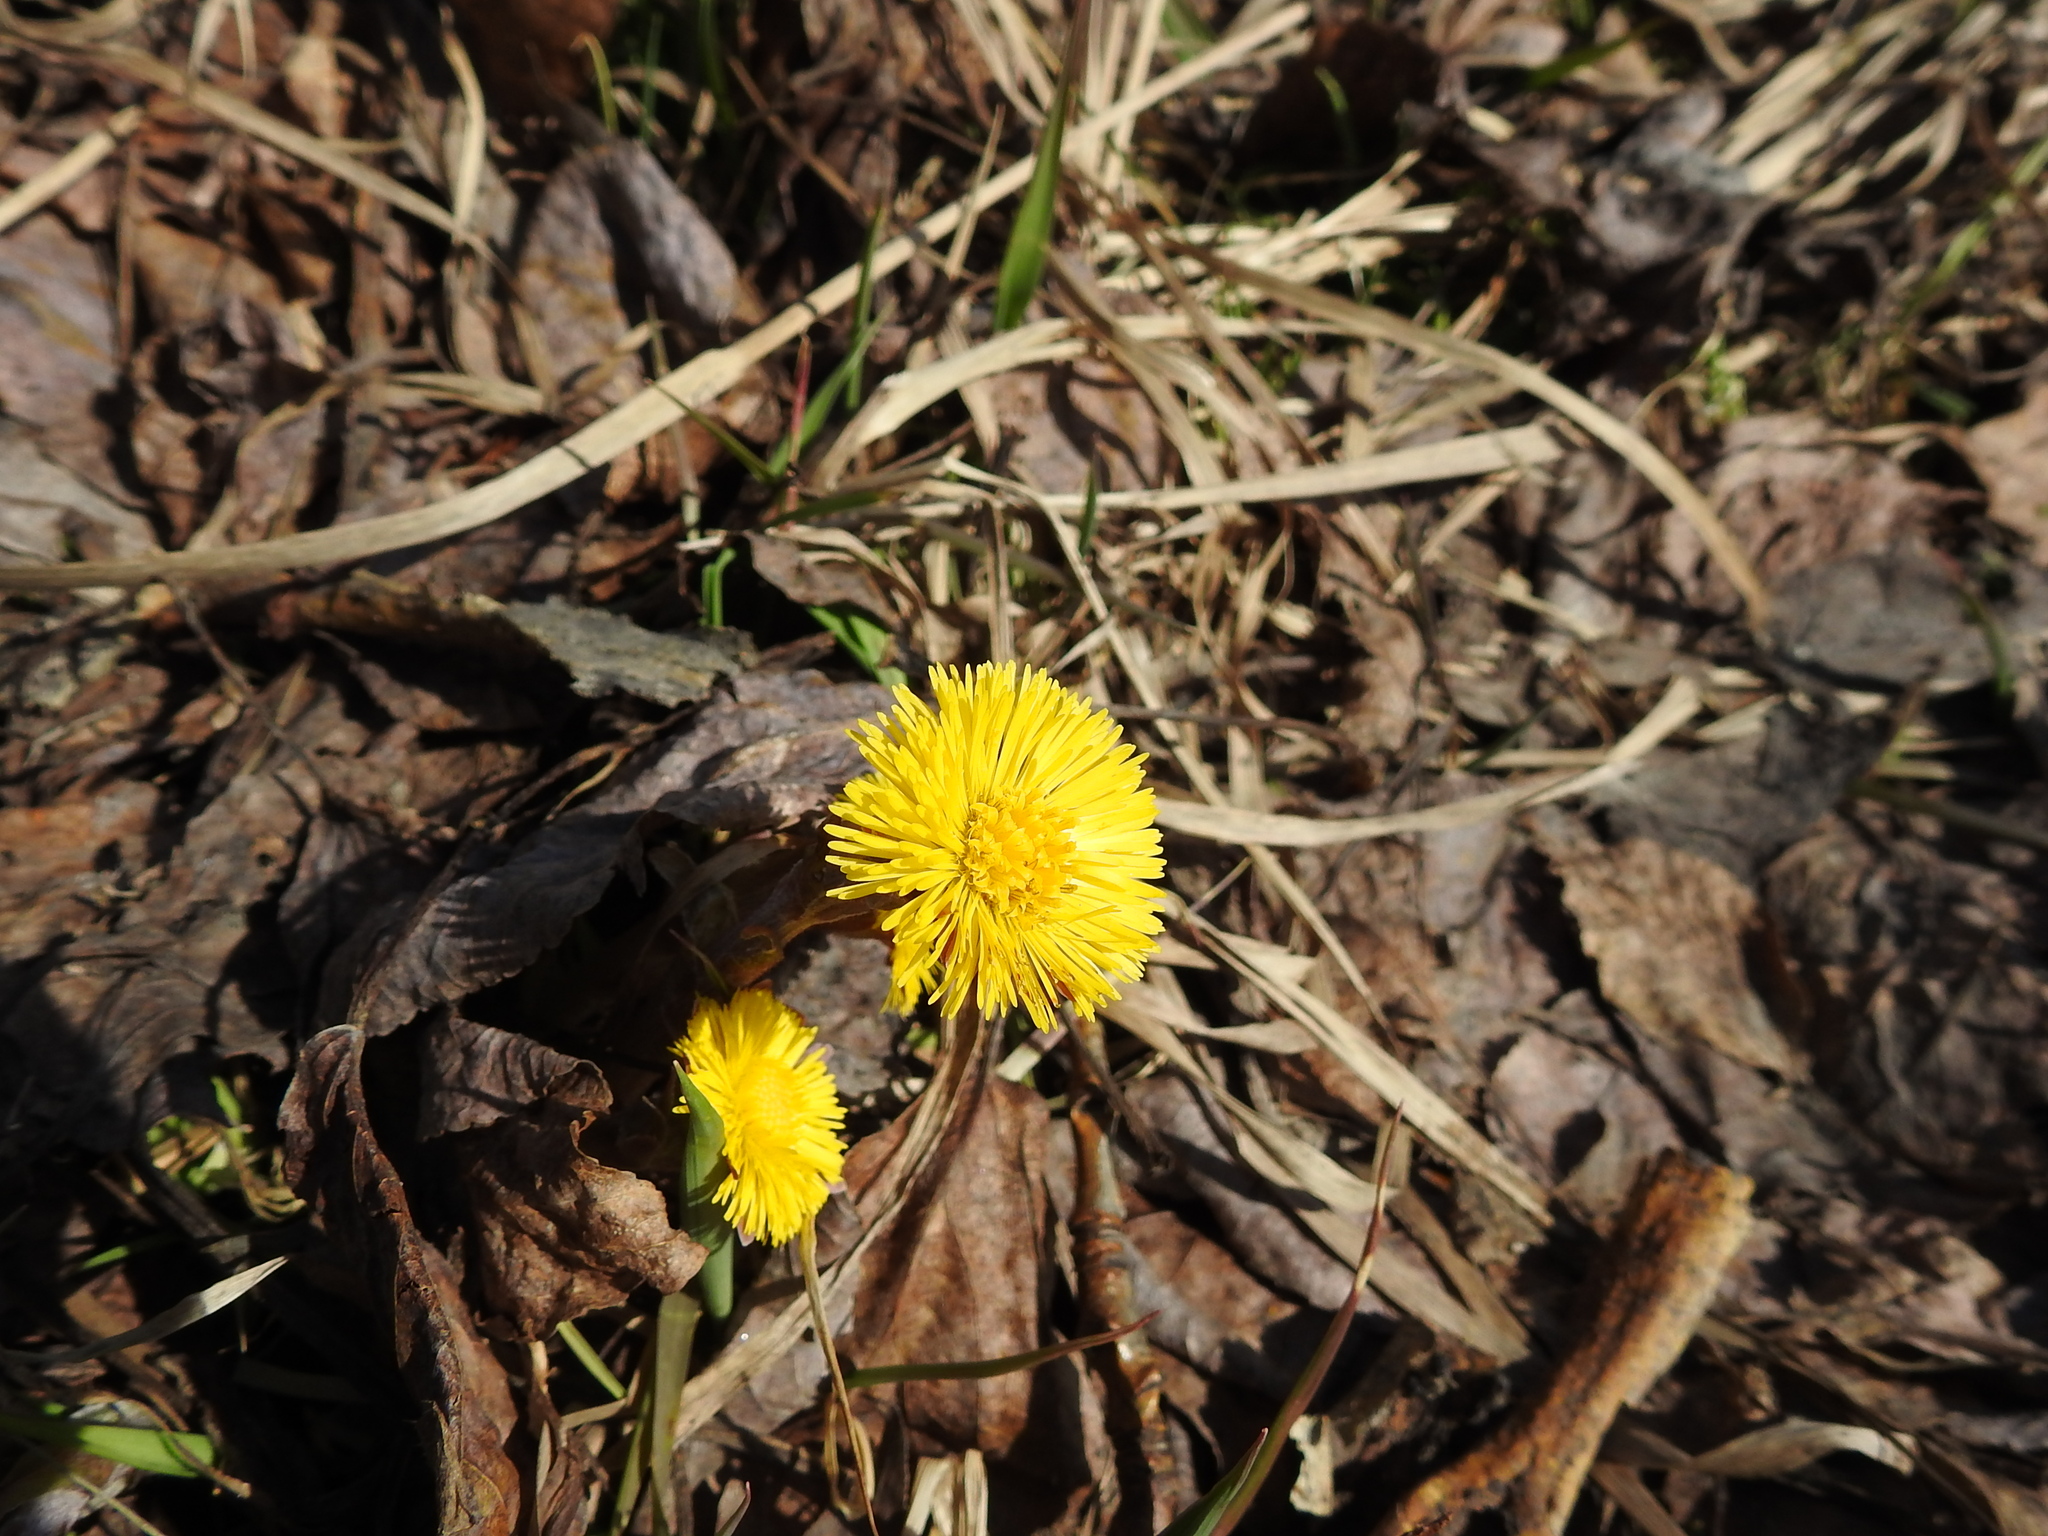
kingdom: Plantae
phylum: Tracheophyta
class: Magnoliopsida
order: Asterales
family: Asteraceae
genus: Tussilago
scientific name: Tussilago farfara
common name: Coltsfoot
